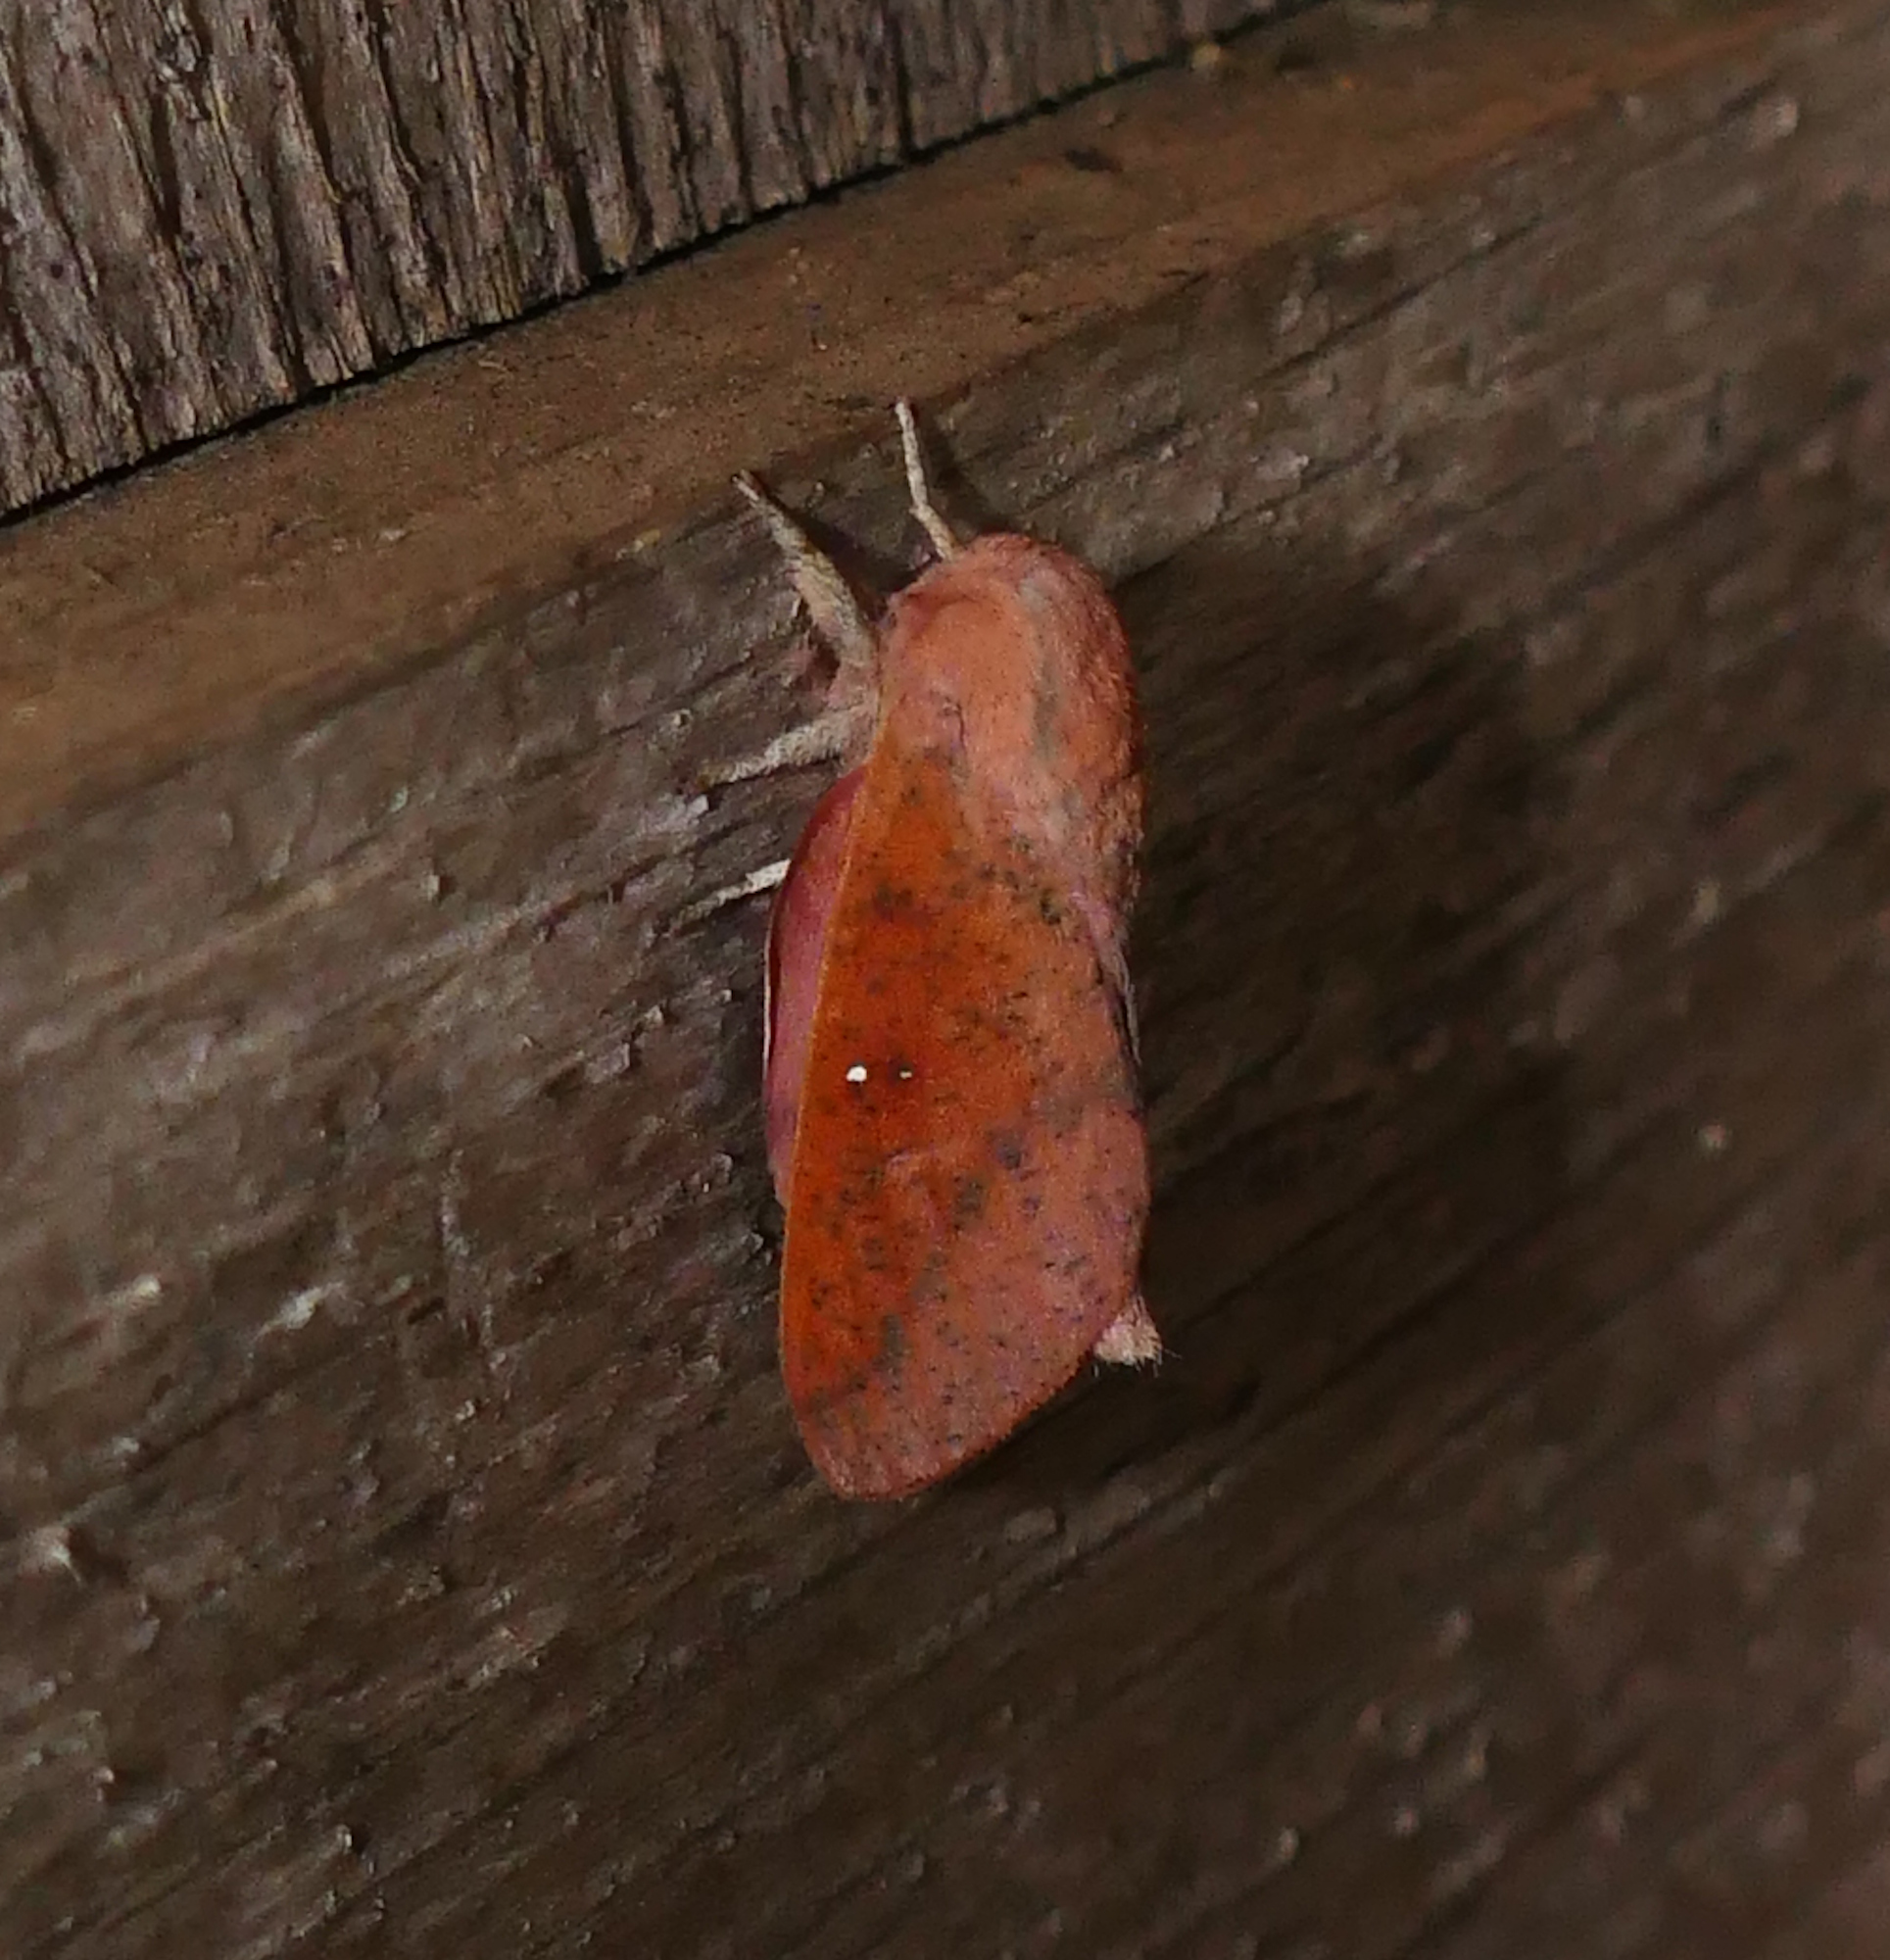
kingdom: Animalia
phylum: Arthropoda
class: Insecta
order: Lepidoptera
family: Saturniidae
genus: Syssphinx
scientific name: Syssphinx bicolor
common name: Honey locust moth
